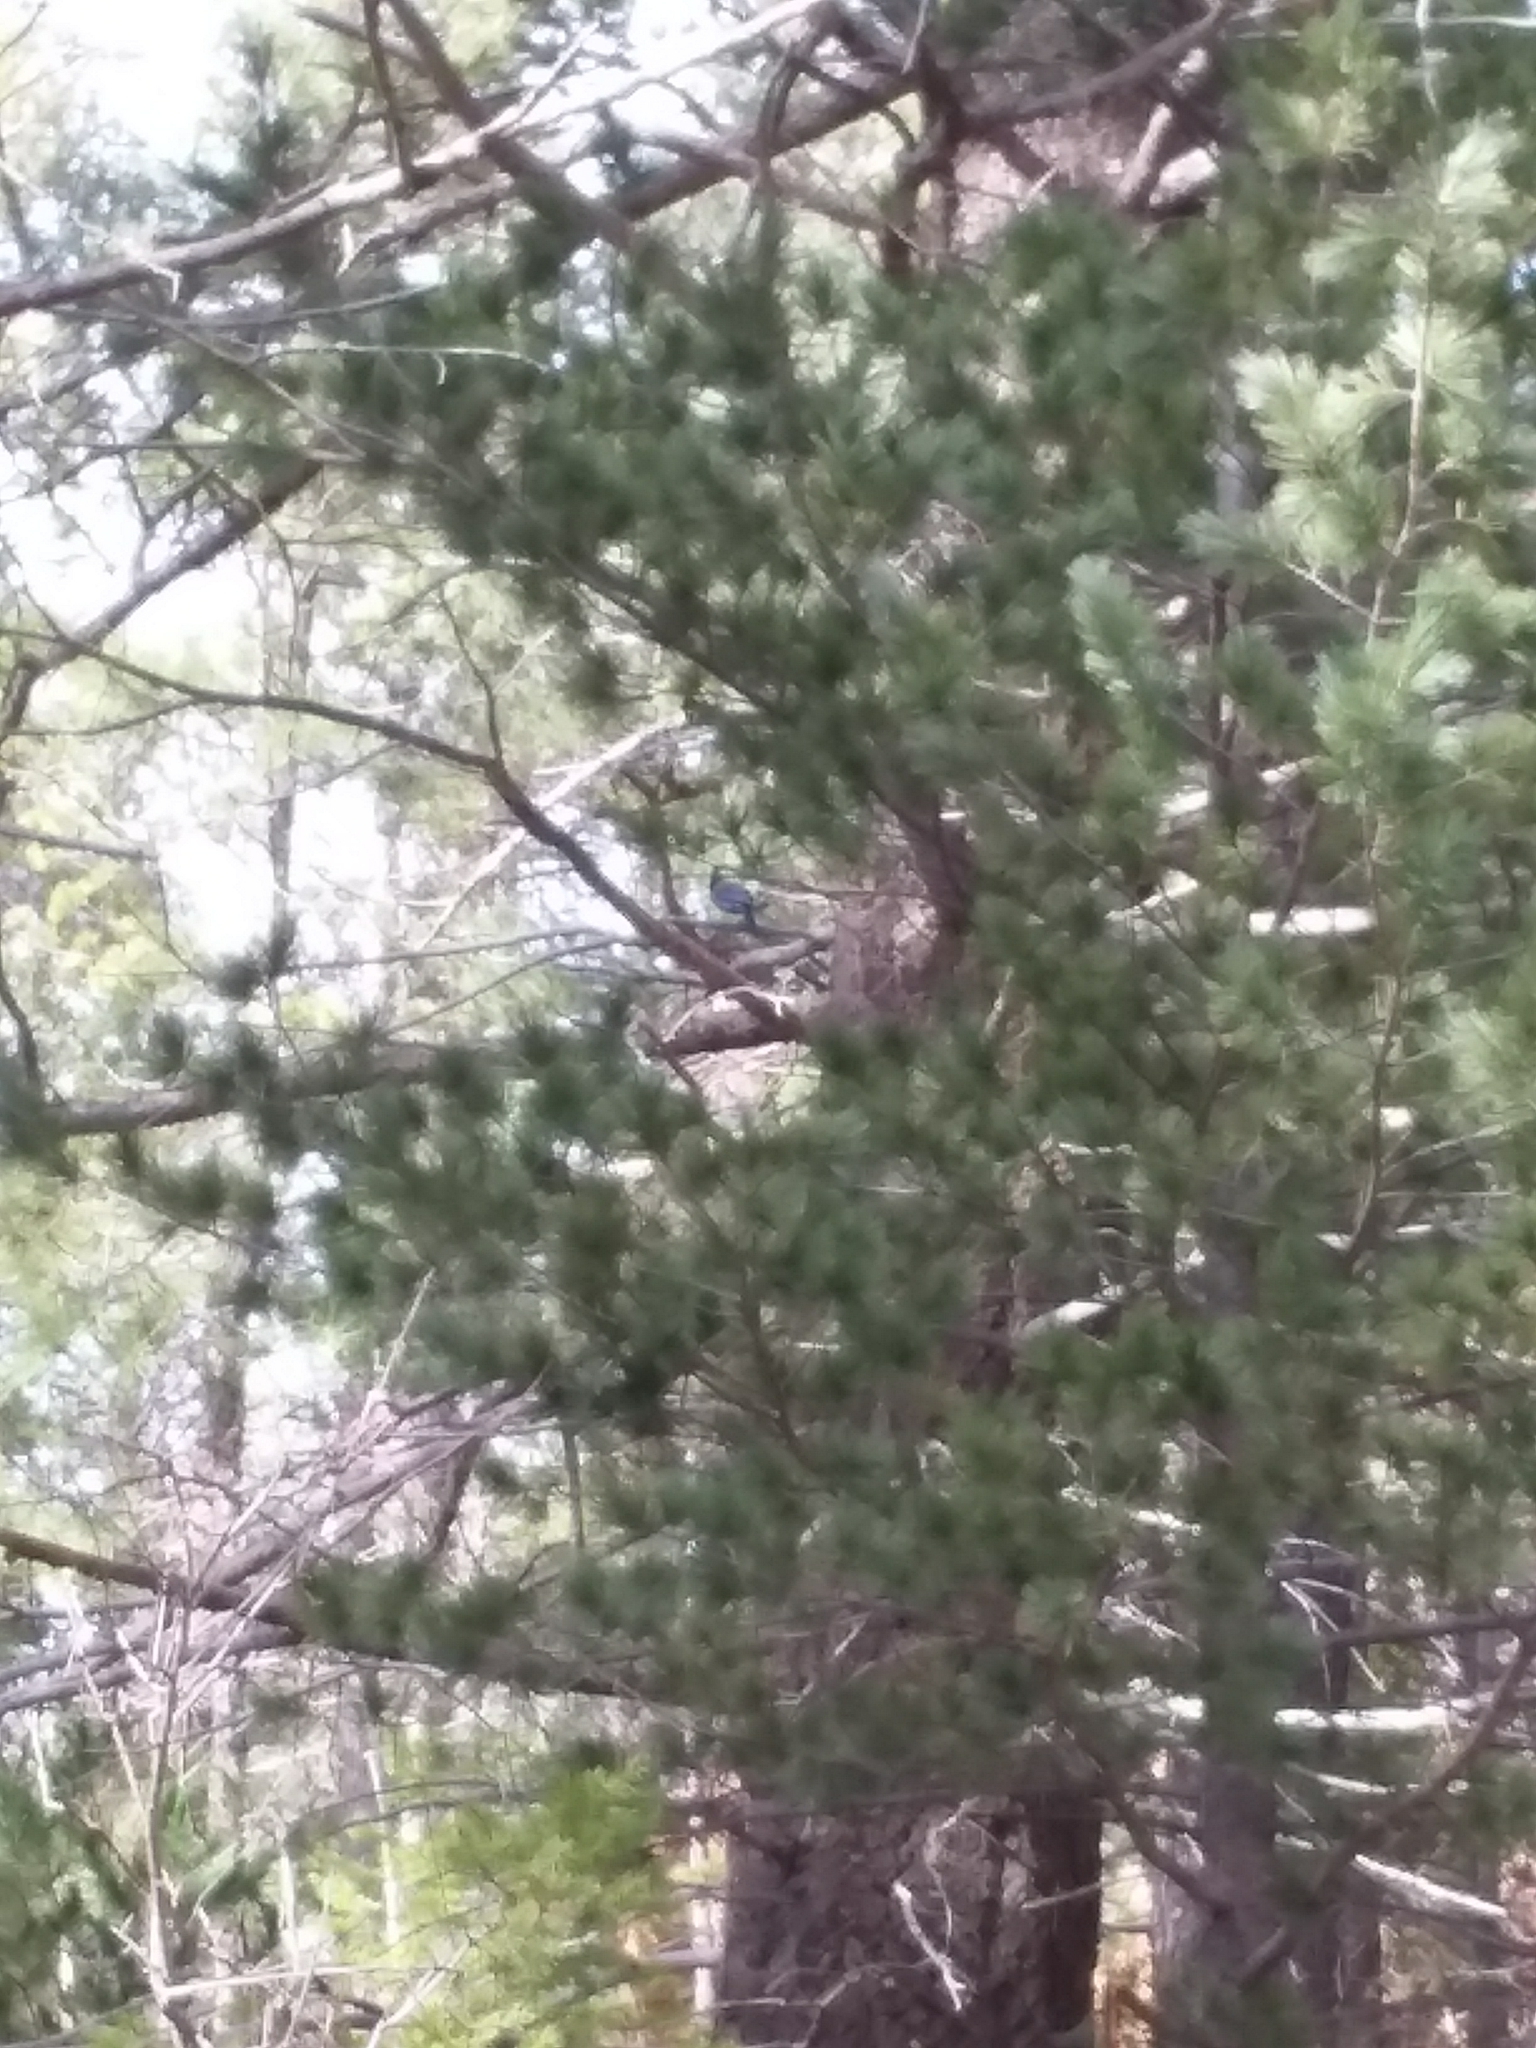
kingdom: Animalia
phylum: Chordata
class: Aves
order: Passeriformes
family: Corvidae
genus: Cyanocitta
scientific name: Cyanocitta stelleri
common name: Steller's jay
